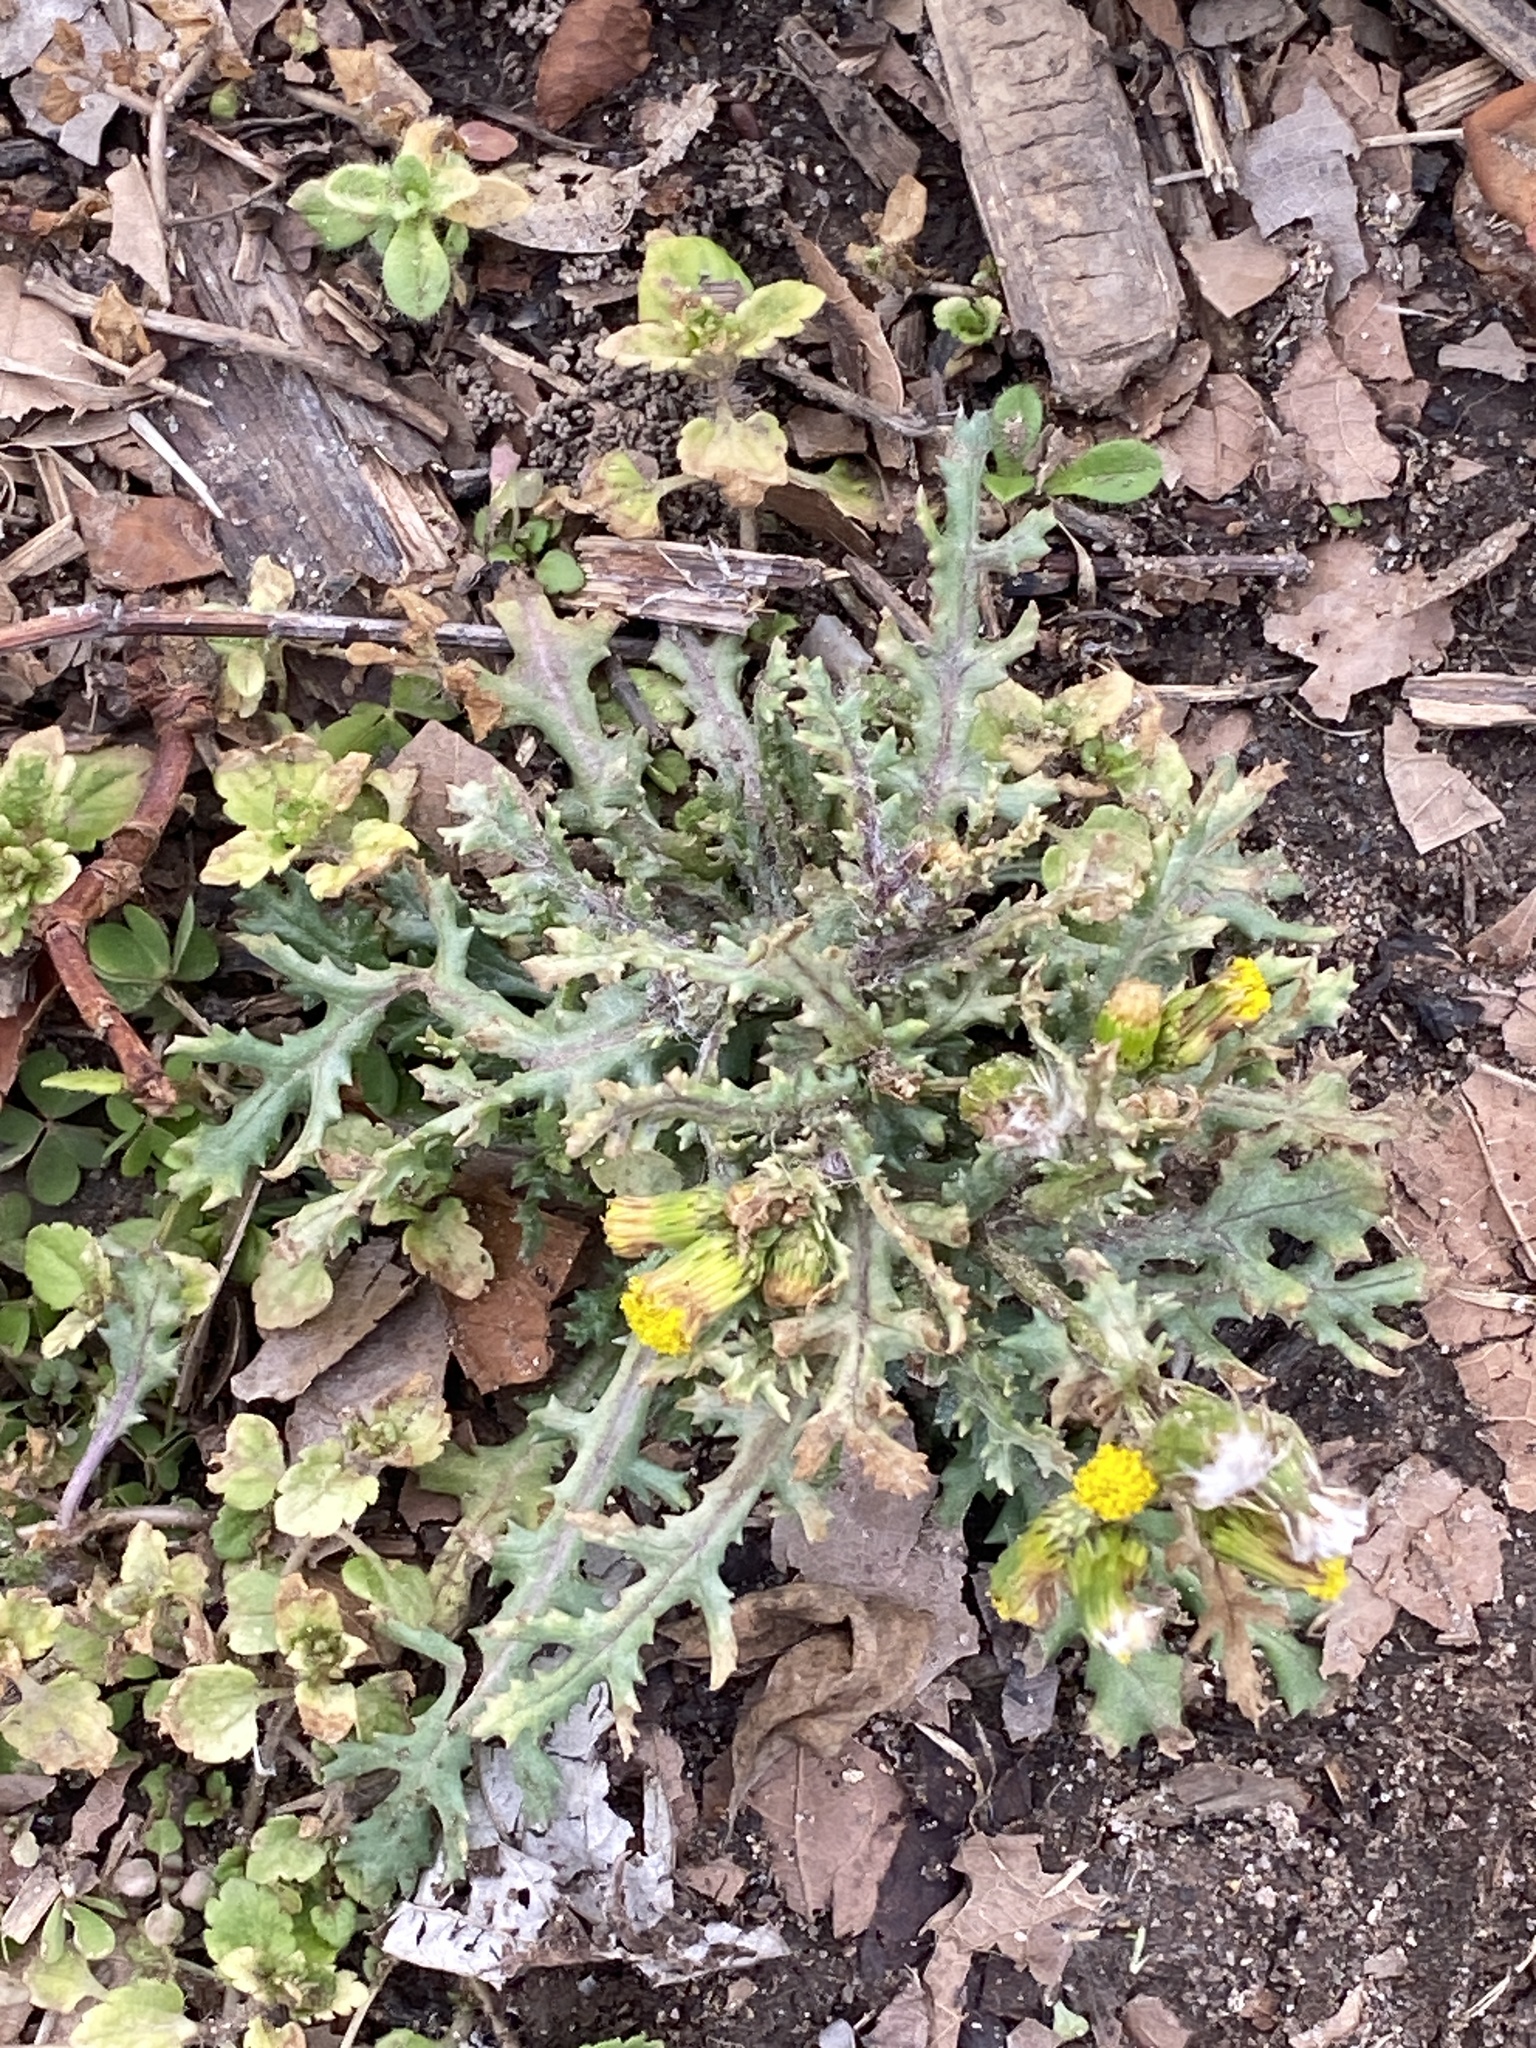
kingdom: Plantae
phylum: Tracheophyta
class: Magnoliopsida
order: Asterales
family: Asteraceae
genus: Senecio
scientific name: Senecio vulgaris
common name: Old-man-in-the-spring
